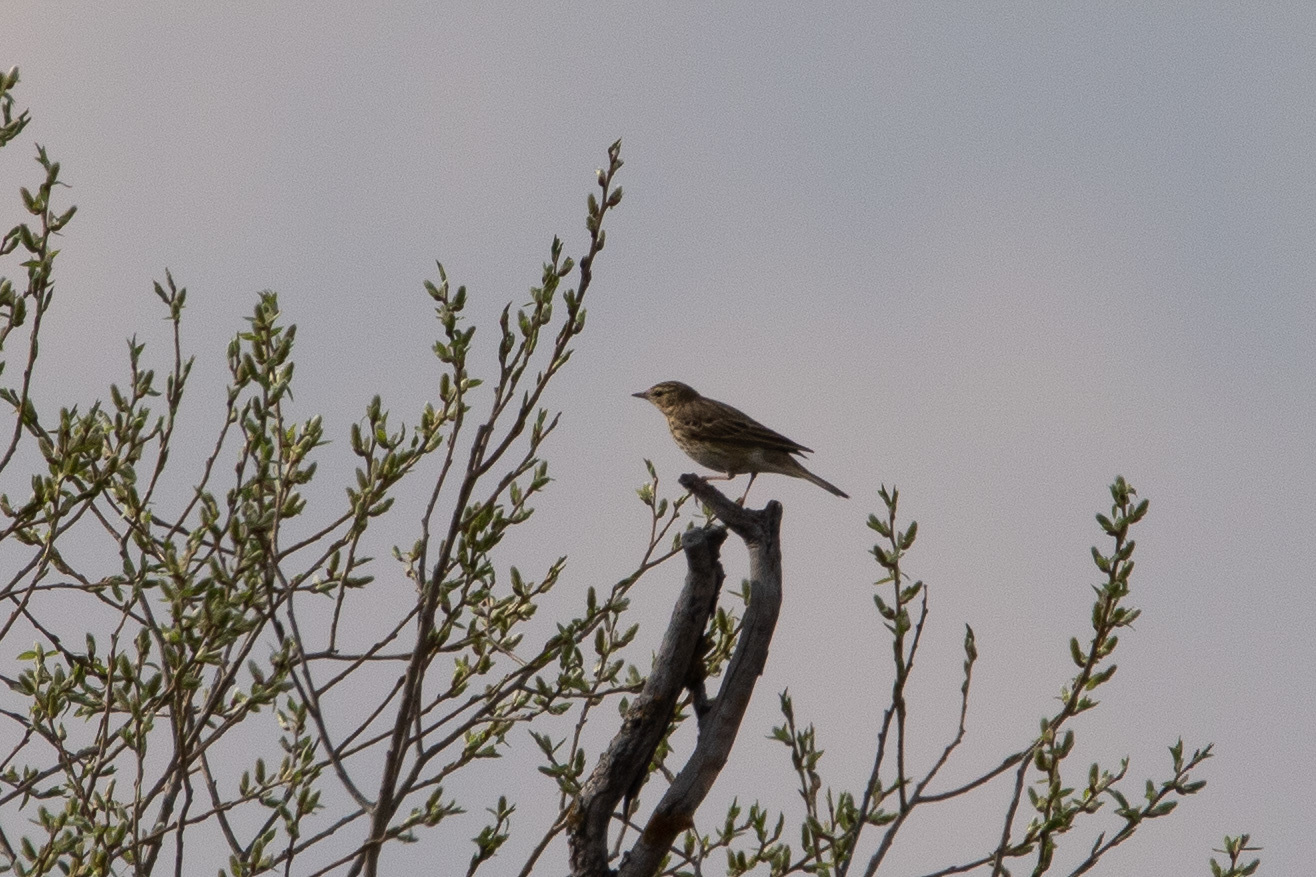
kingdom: Animalia
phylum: Chordata
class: Aves
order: Passeriformes
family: Motacillidae
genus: Anthus
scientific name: Anthus trivialis
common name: Tree pipit
